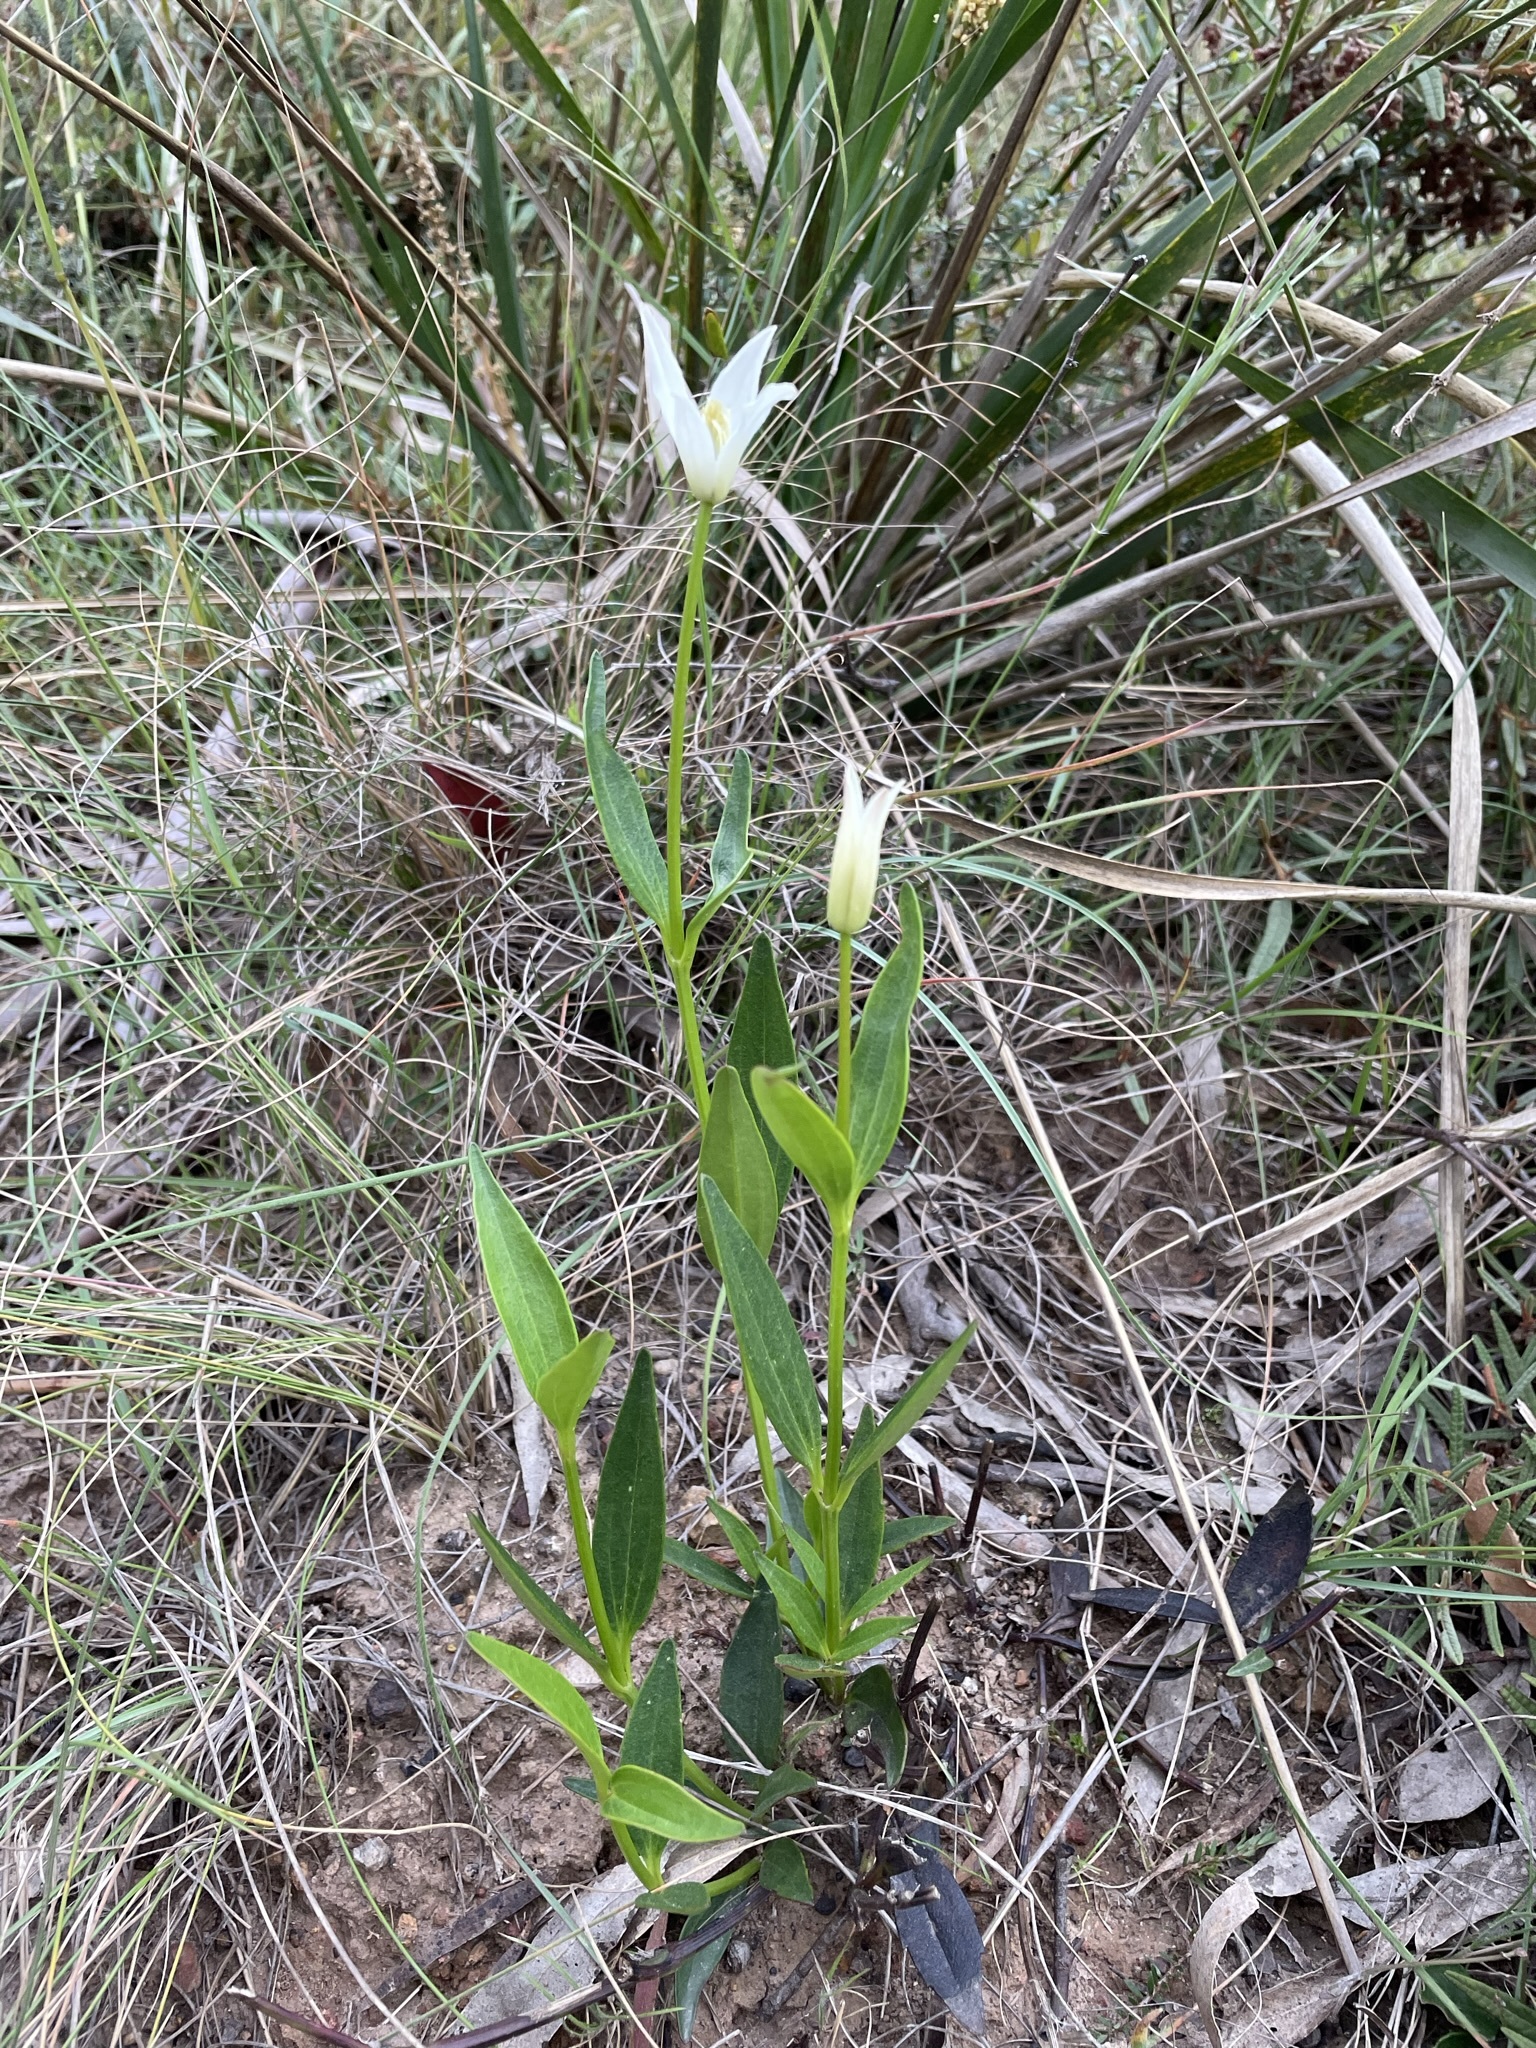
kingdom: Plantae
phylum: Tracheophyta
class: Magnoliopsida
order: Ranunculales
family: Ranunculaceae
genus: Clematis
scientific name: Clematis gentianoides
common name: Bushy clematis
